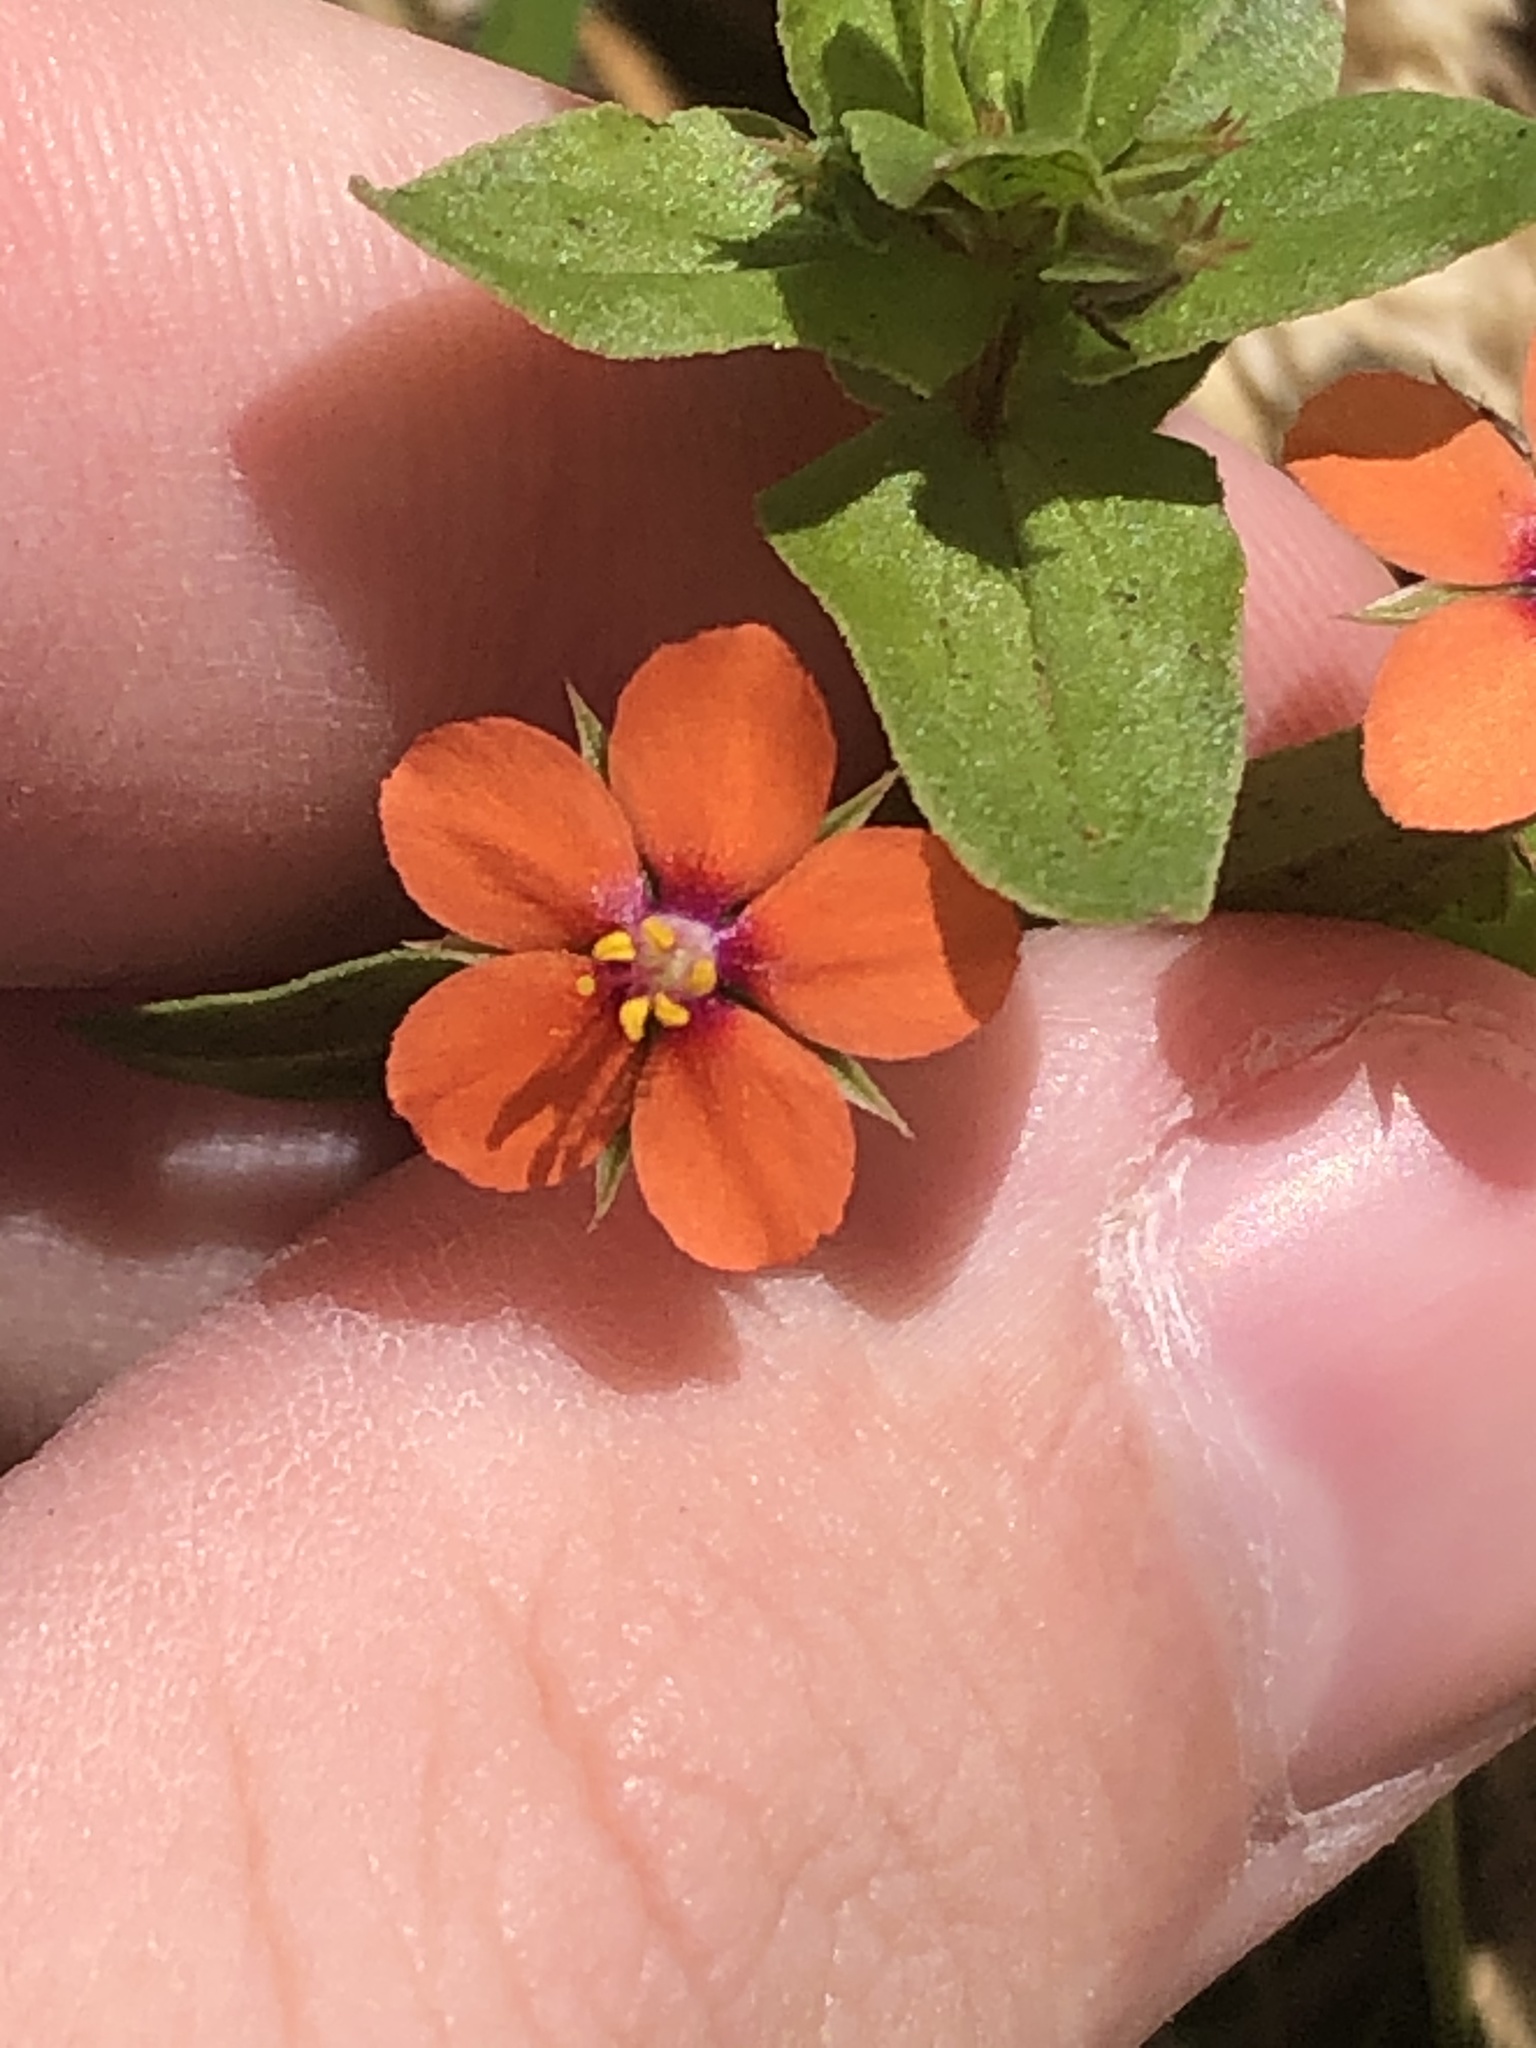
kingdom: Plantae
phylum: Tracheophyta
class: Magnoliopsida
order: Ericales
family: Primulaceae
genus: Lysimachia
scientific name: Lysimachia arvensis
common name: Scarlet pimpernel
